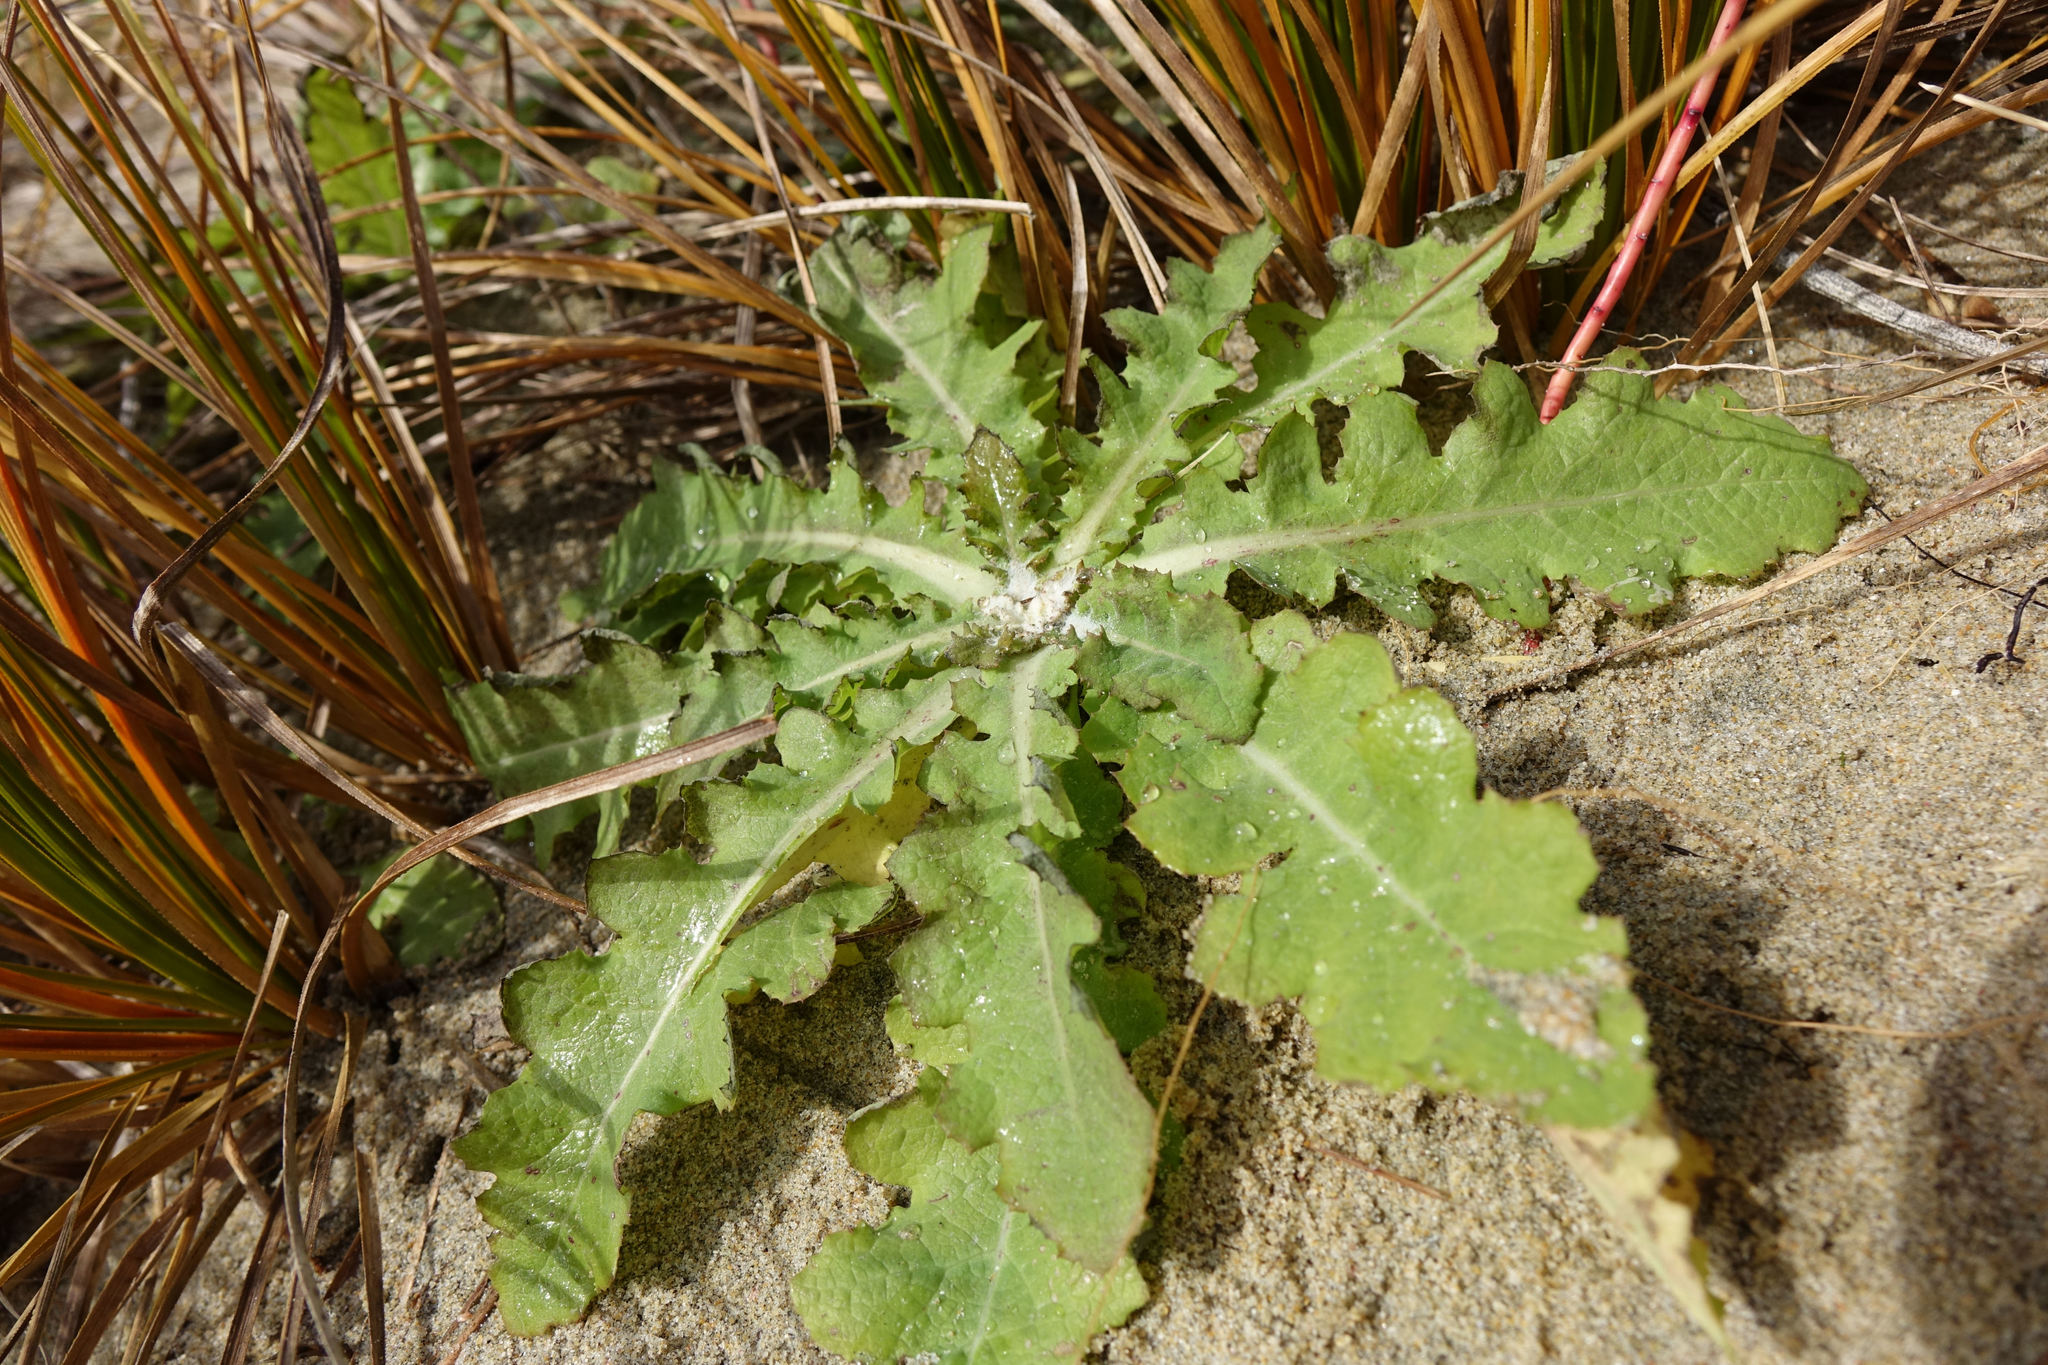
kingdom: Plantae
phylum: Tracheophyta
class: Magnoliopsida
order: Asterales
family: Asteraceae
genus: Sonchus
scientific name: Sonchus kirkii
